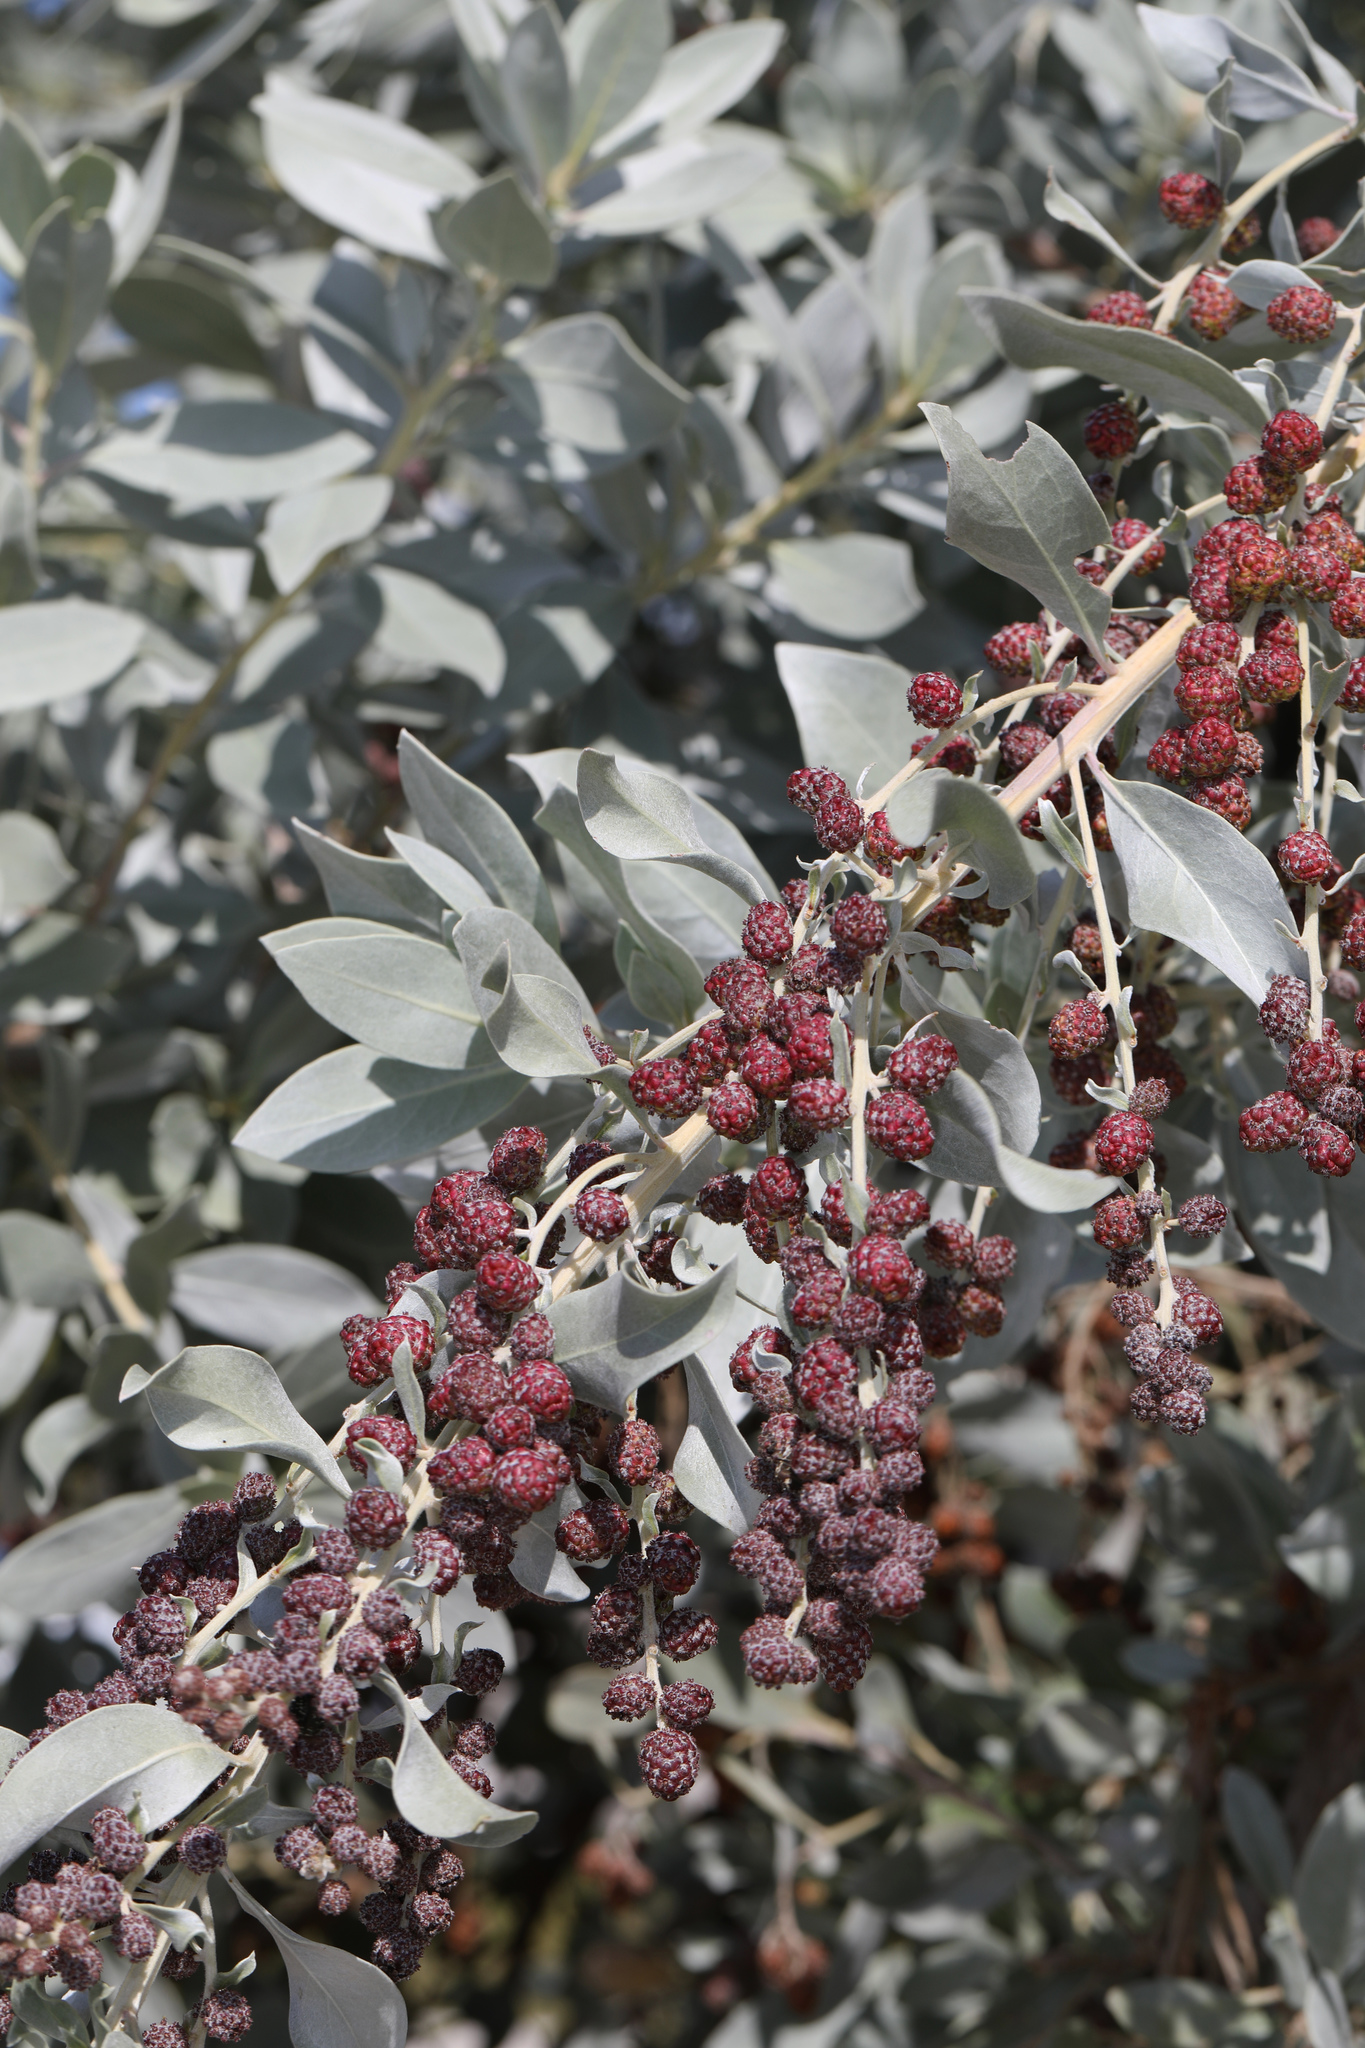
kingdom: Plantae
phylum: Tracheophyta
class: Magnoliopsida
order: Myrtales
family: Combretaceae
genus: Conocarpus
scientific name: Conocarpus erectus
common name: Button mangrove
